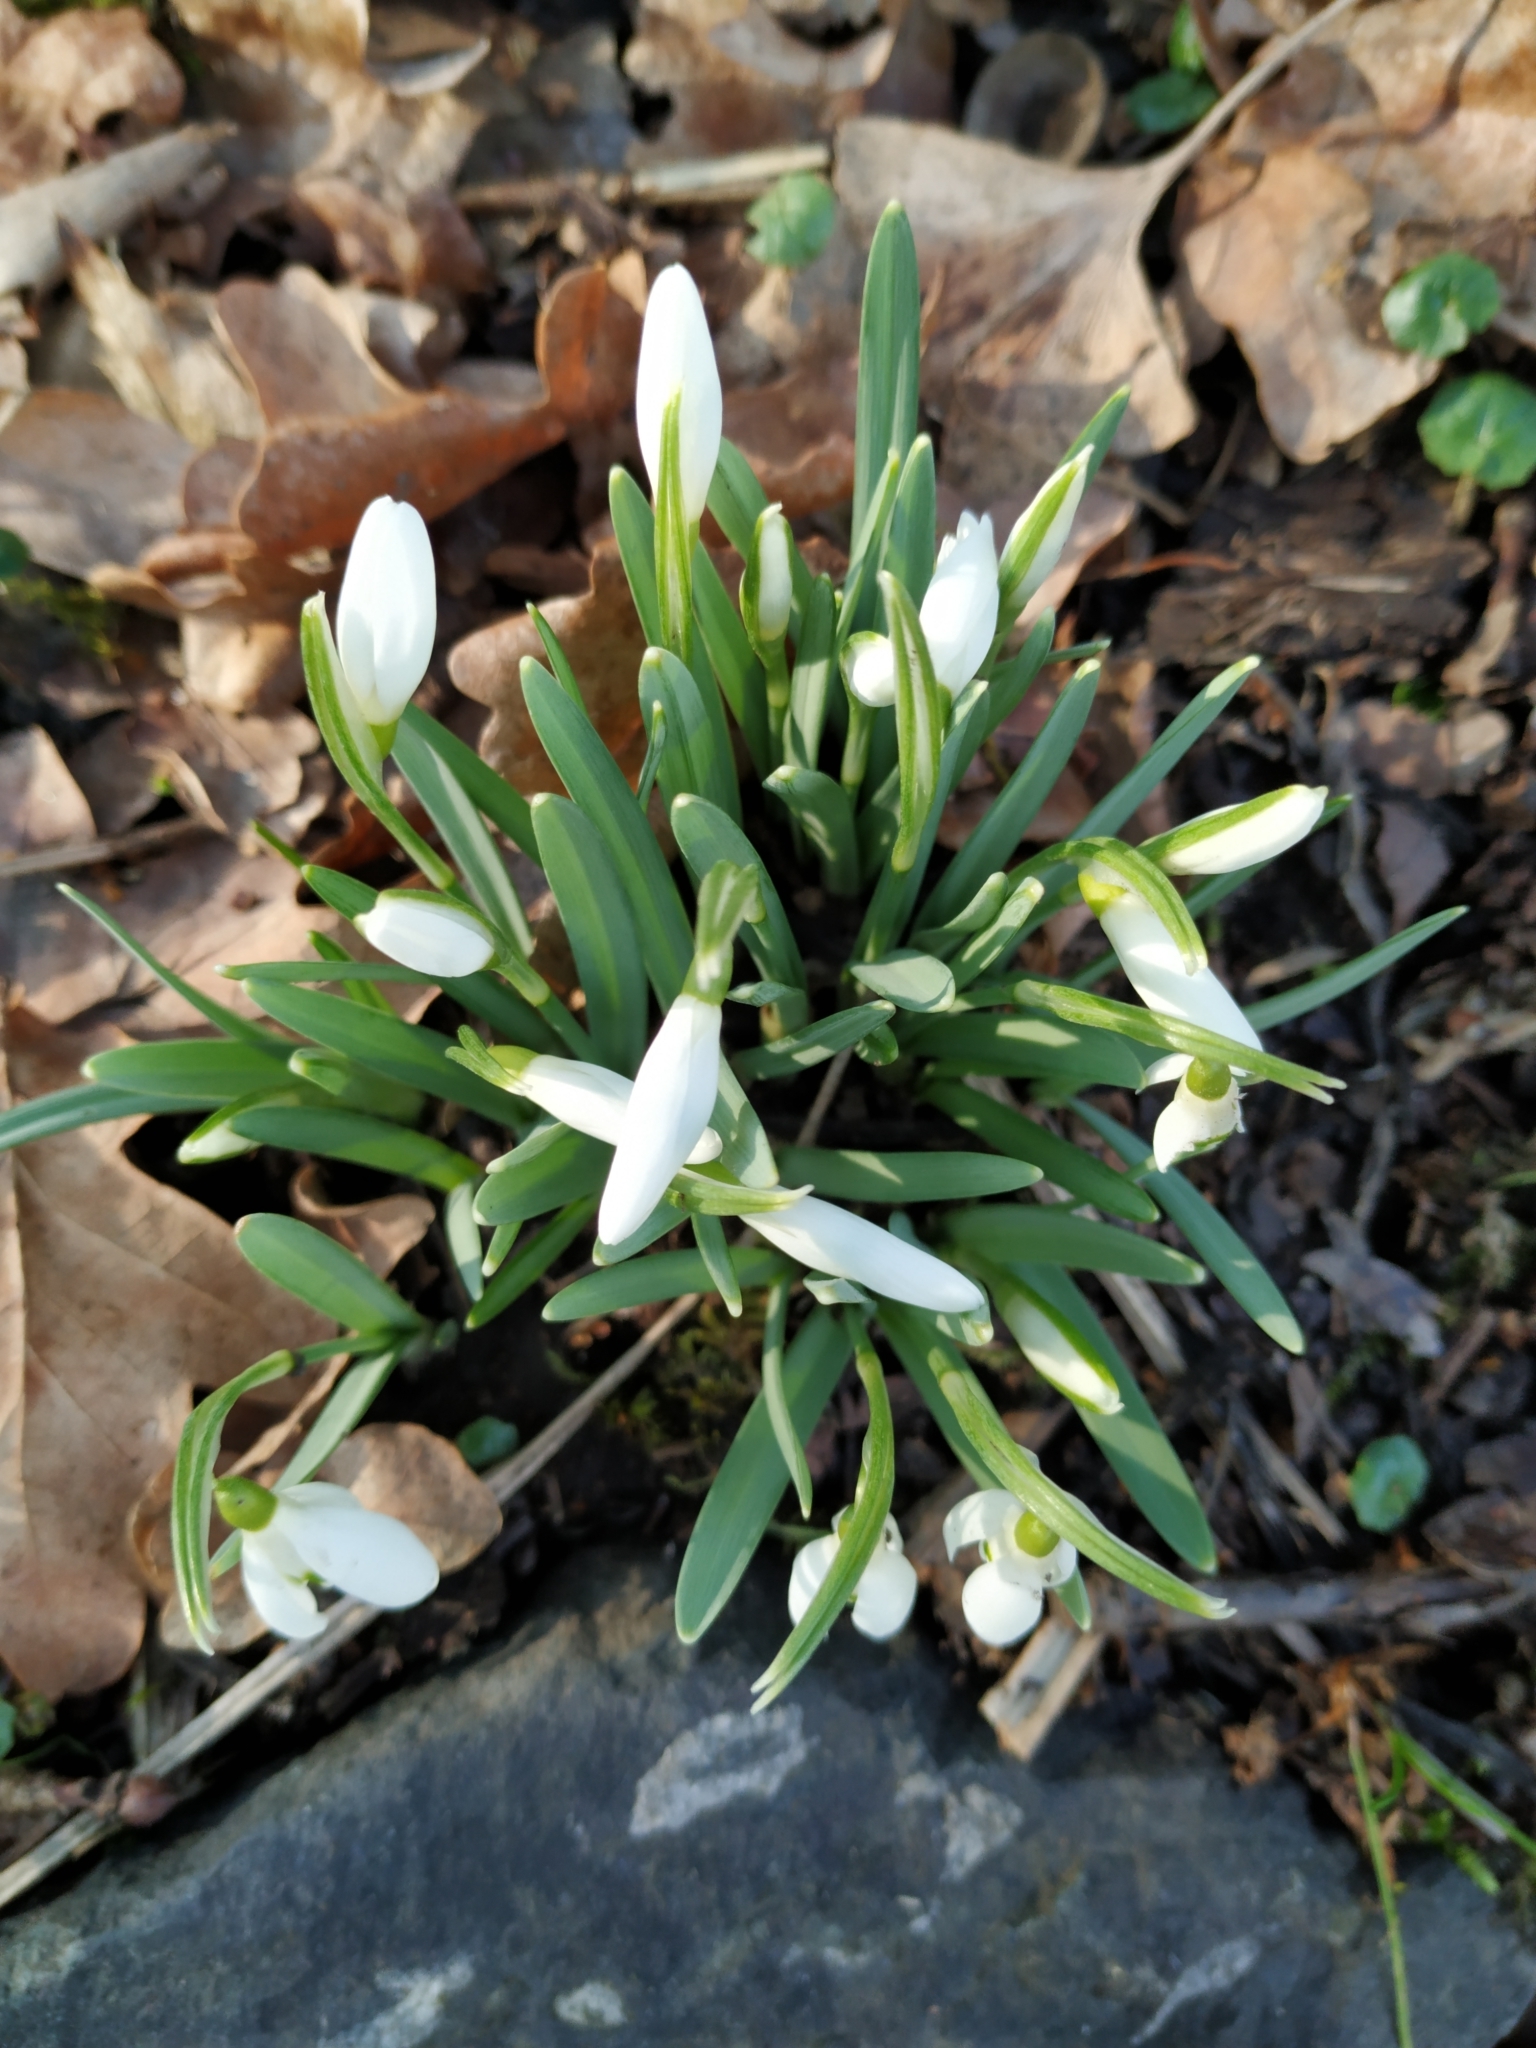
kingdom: Plantae
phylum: Tracheophyta
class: Liliopsida
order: Asparagales
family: Amaryllidaceae
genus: Galanthus
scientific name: Galanthus nivalis
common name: Snowdrop
